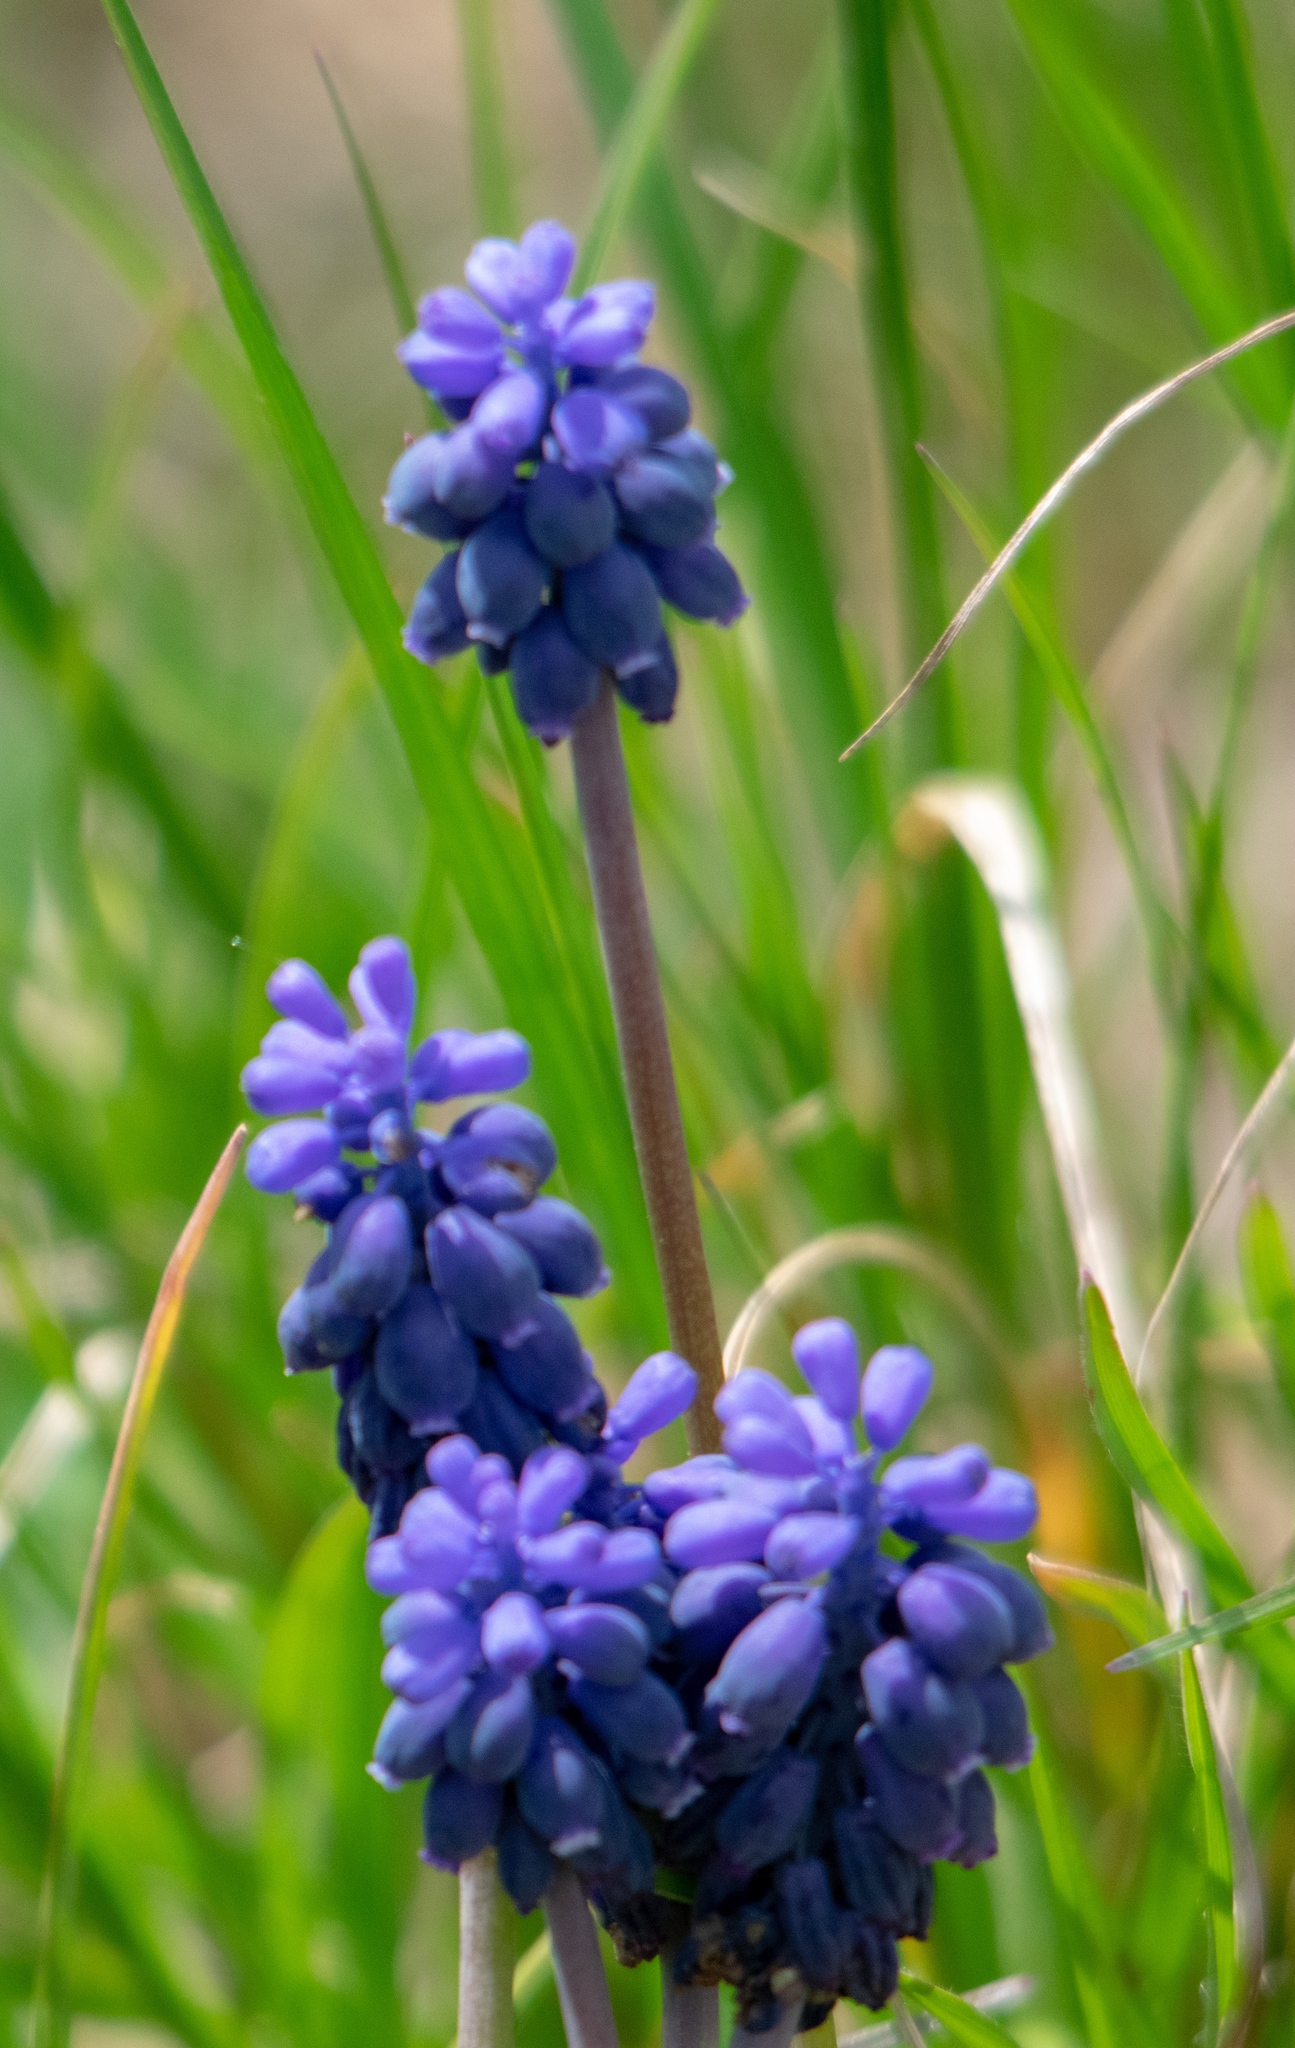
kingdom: Plantae
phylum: Tracheophyta
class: Liliopsida
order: Asparagales
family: Asparagaceae
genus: Muscari
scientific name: Muscari neglectum
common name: Grape-hyacinth
